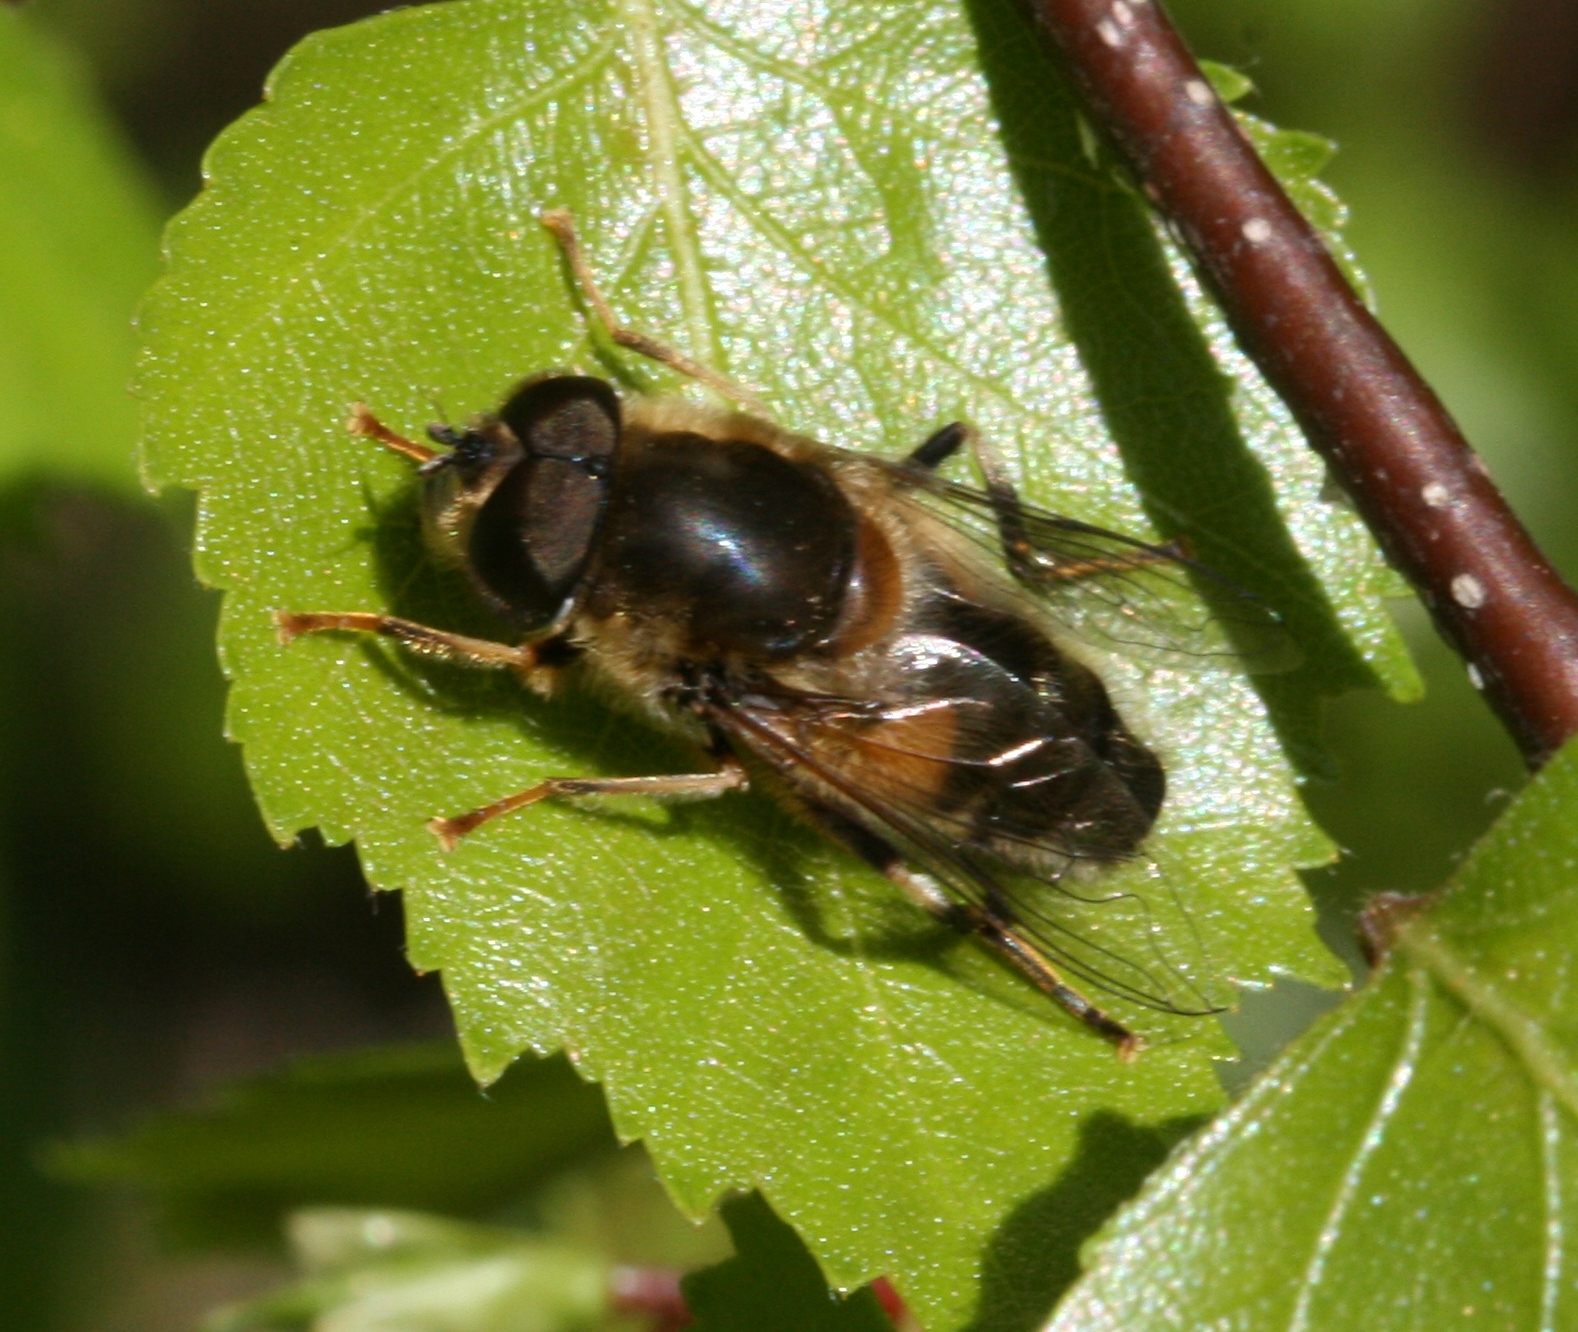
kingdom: Animalia
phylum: Arthropoda
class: Insecta
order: Diptera
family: Syrphidae
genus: Eristalis
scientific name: Eristalis pertinax
